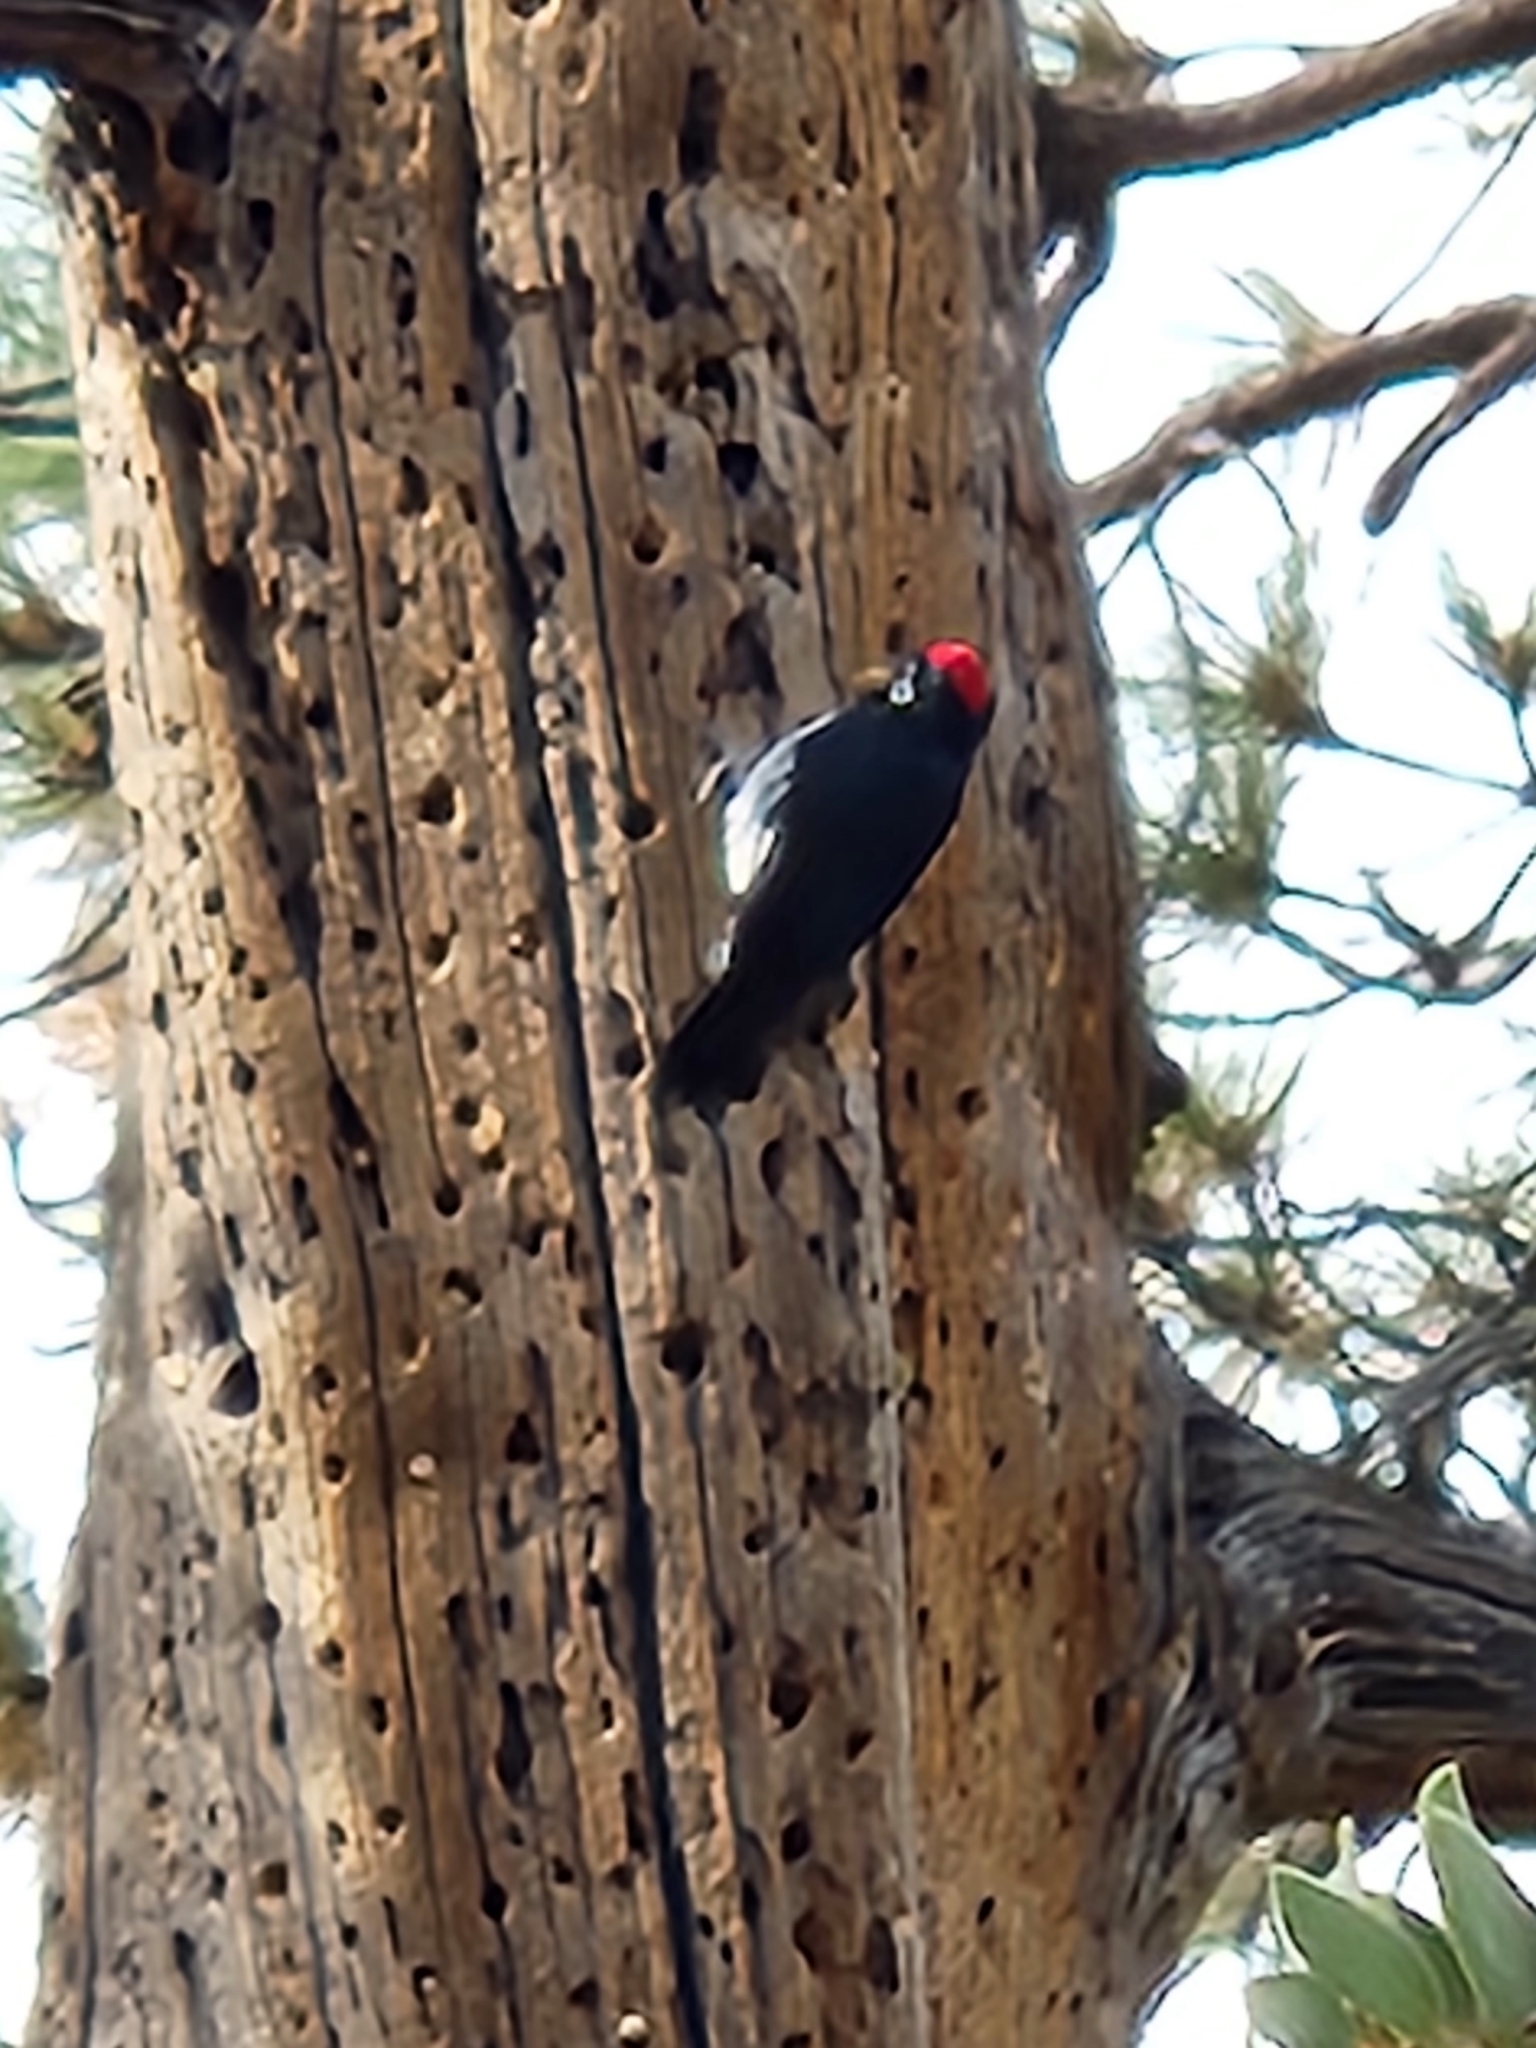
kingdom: Animalia
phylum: Chordata
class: Aves
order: Piciformes
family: Picidae
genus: Melanerpes
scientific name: Melanerpes formicivorus
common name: Acorn woodpecker
